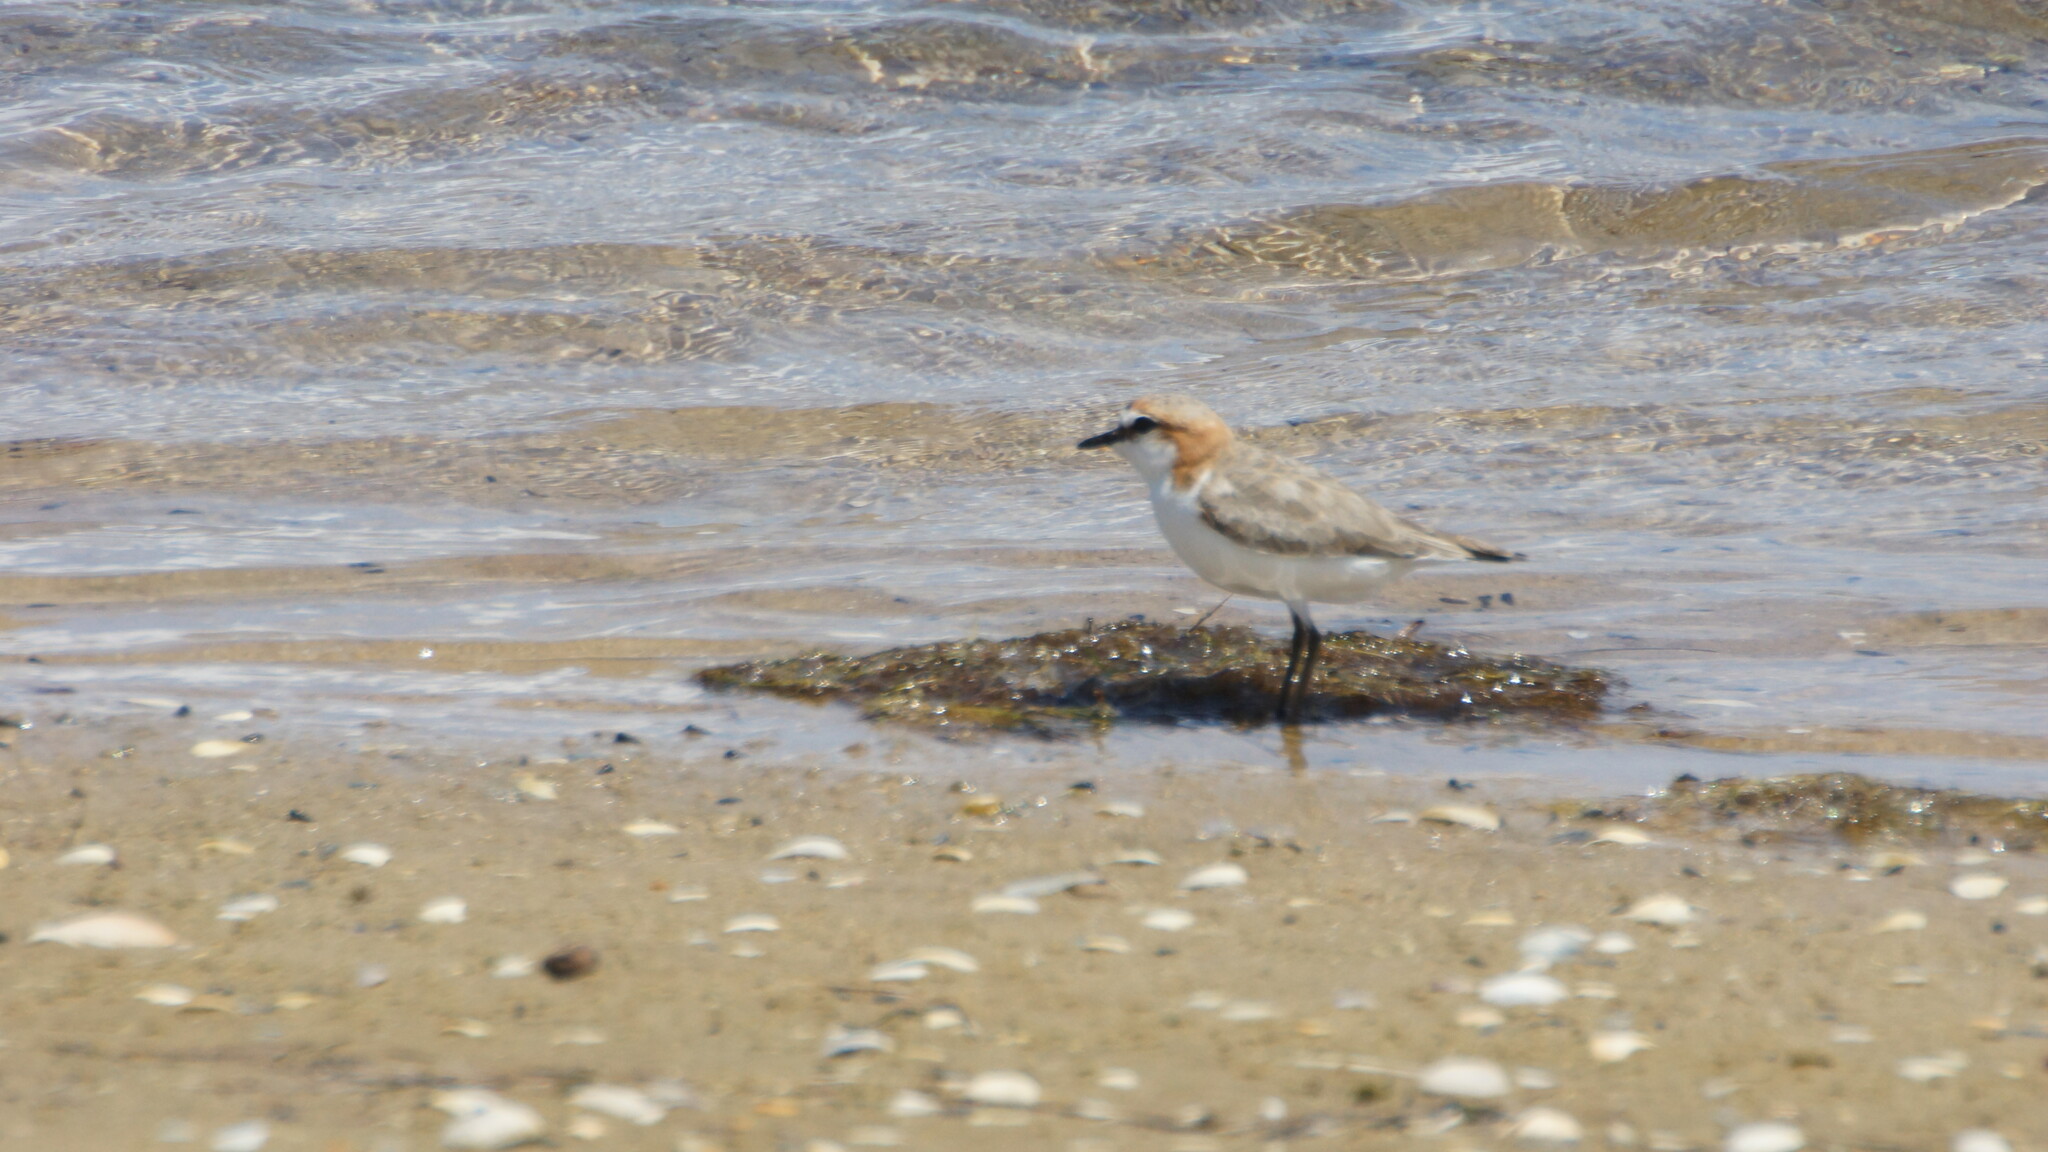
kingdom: Animalia
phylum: Chordata
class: Aves
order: Charadriiformes
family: Charadriidae
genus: Anarhynchus
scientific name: Anarhynchus
